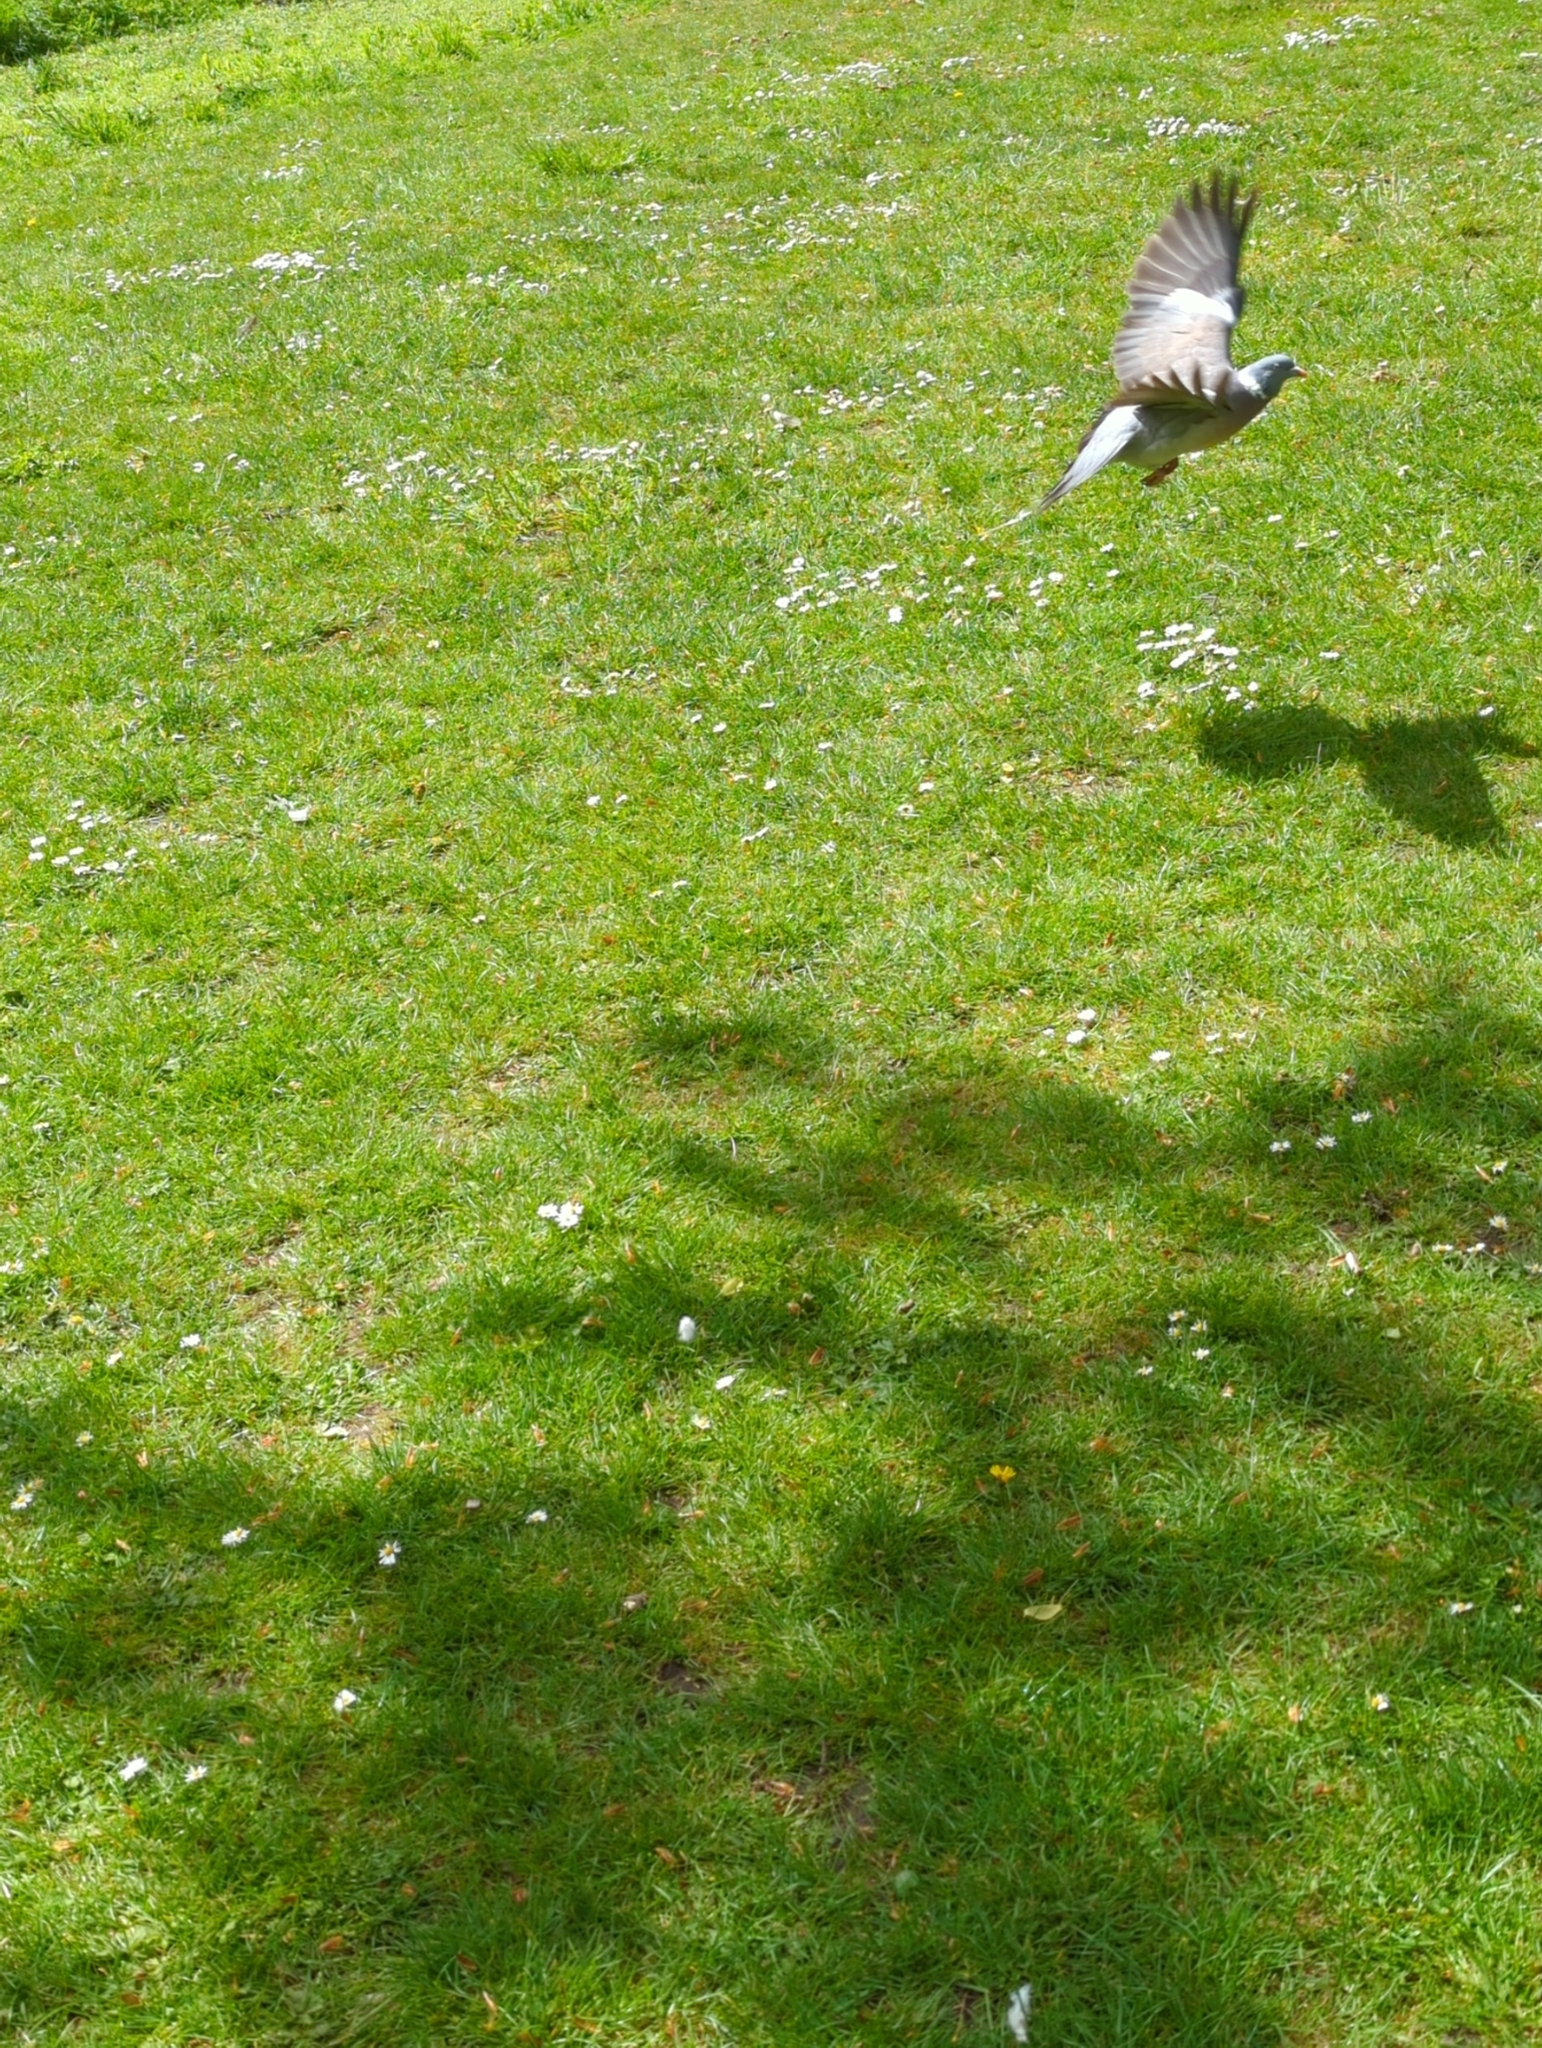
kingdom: Animalia
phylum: Chordata
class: Aves
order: Columbiformes
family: Columbidae
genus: Columba
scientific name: Columba palumbus
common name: Common wood pigeon
